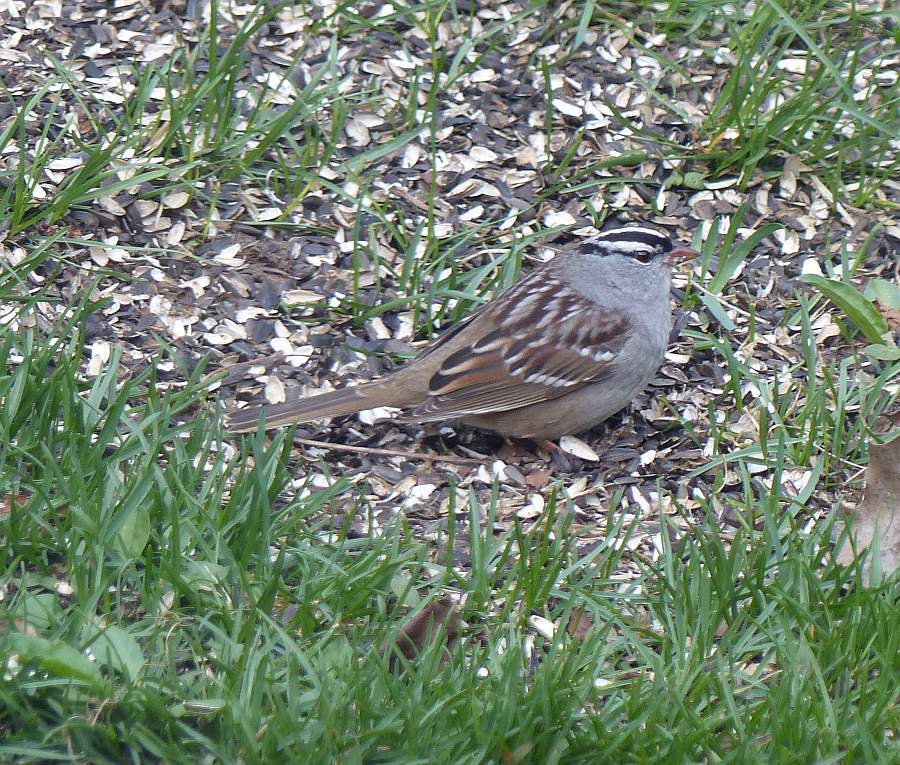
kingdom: Animalia
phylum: Chordata
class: Aves
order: Passeriformes
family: Passerellidae
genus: Zonotrichia
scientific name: Zonotrichia leucophrys
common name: White-crowned sparrow
